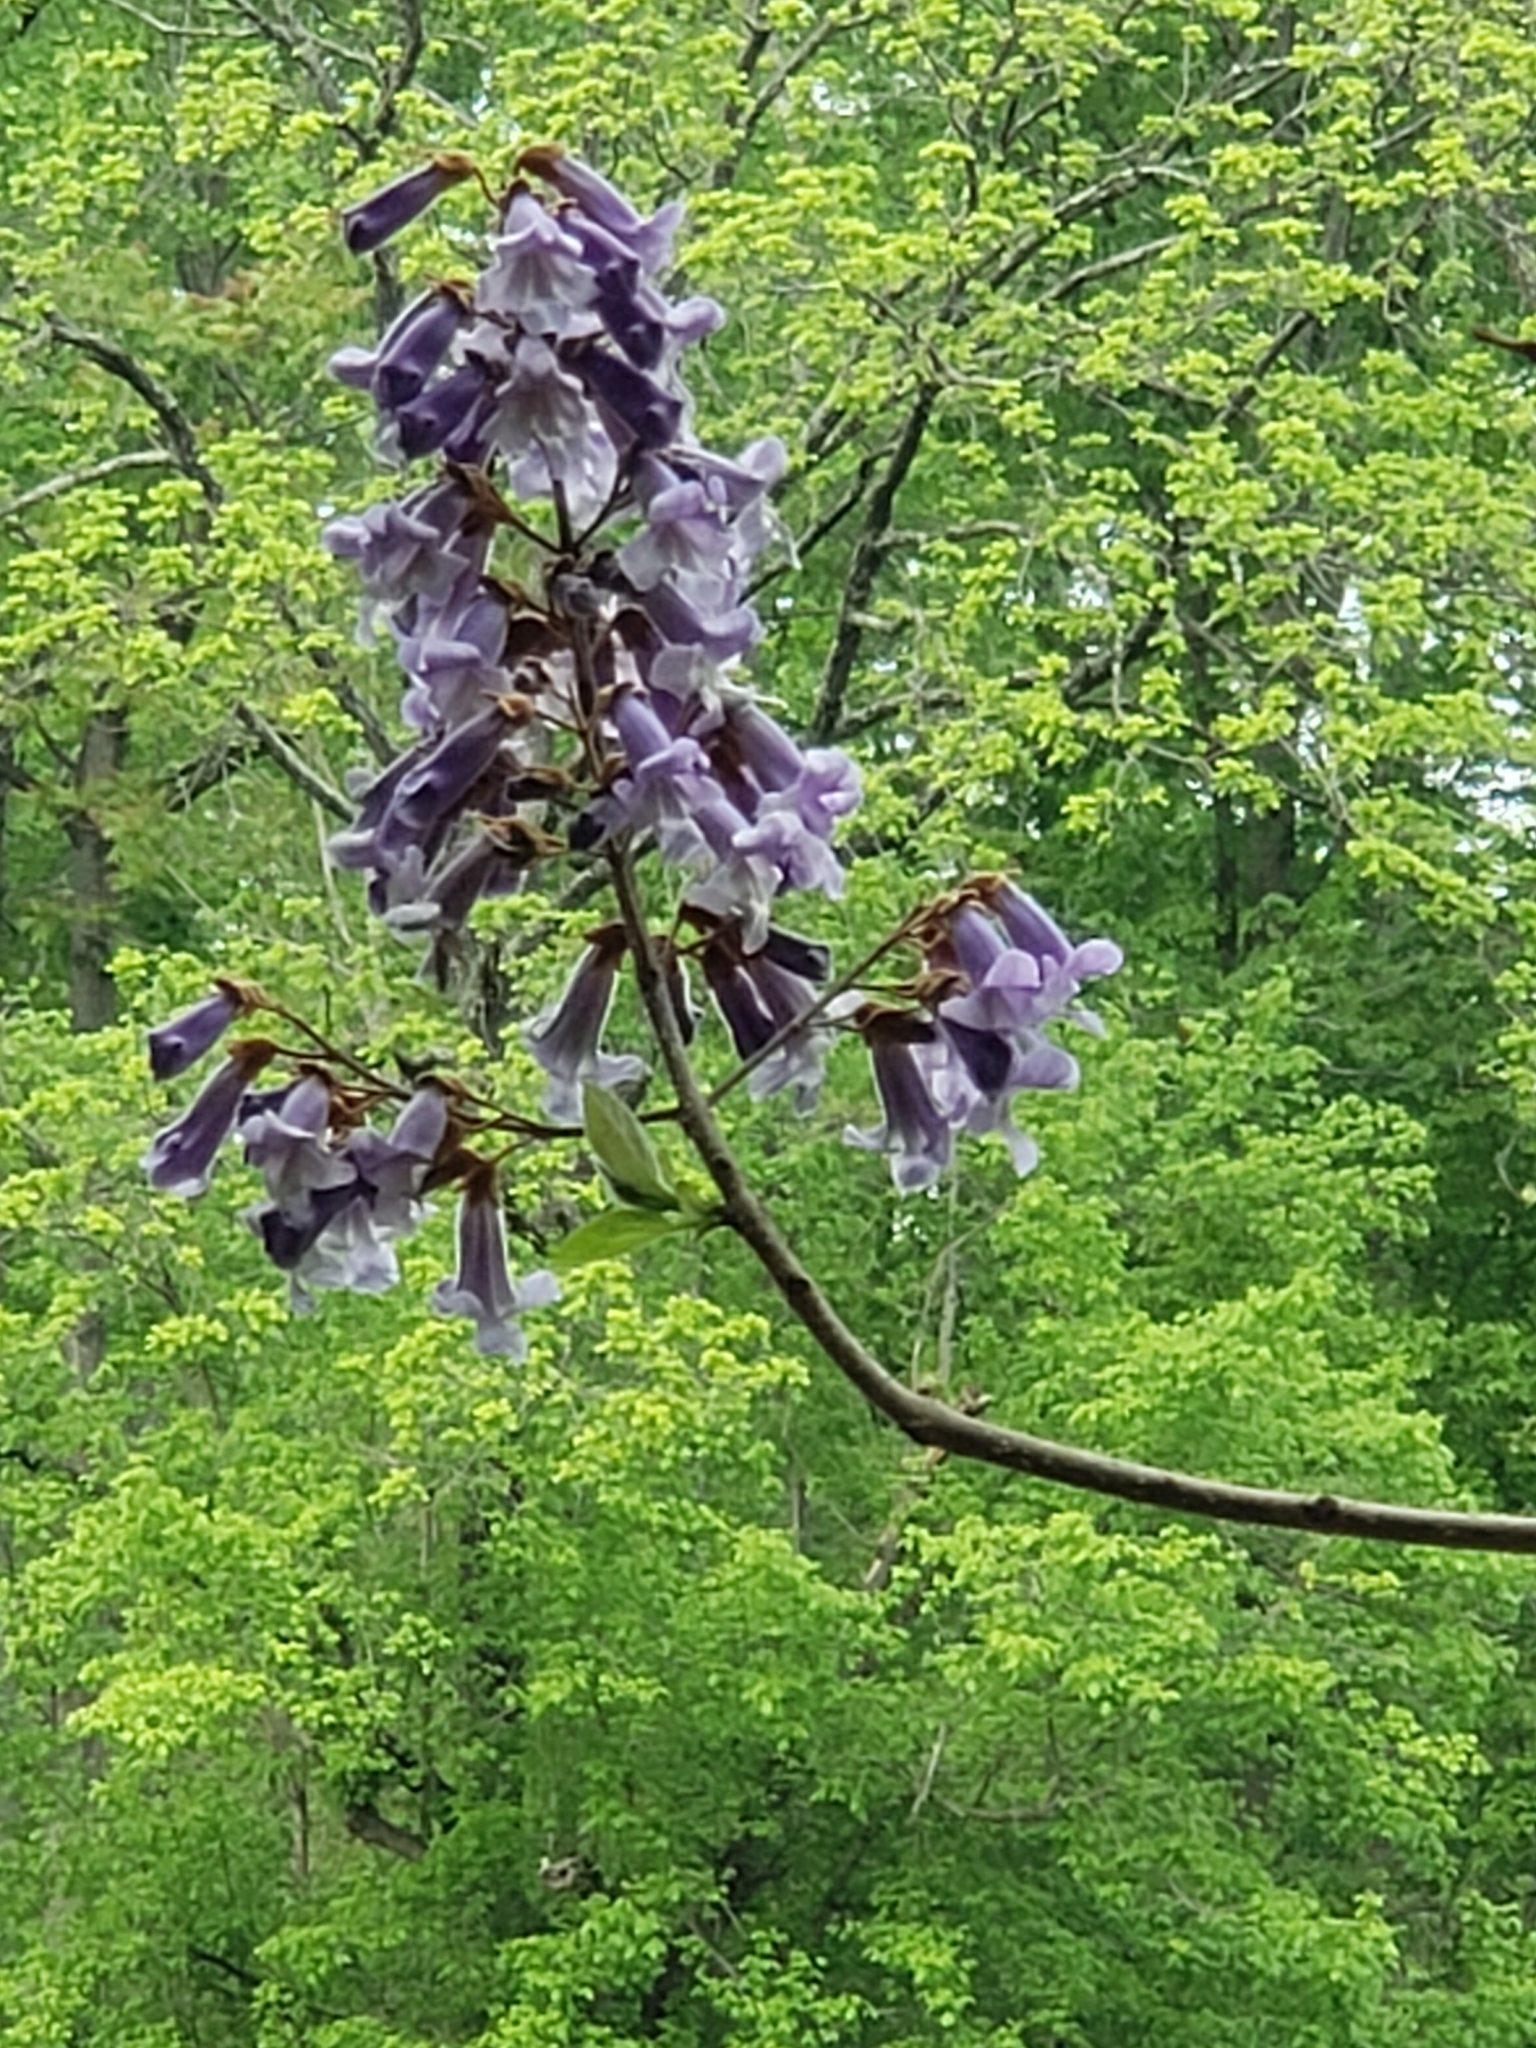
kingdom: Plantae
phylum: Tracheophyta
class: Magnoliopsida
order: Lamiales
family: Paulowniaceae
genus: Paulownia
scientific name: Paulownia tomentosa
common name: Foxglove-tree
